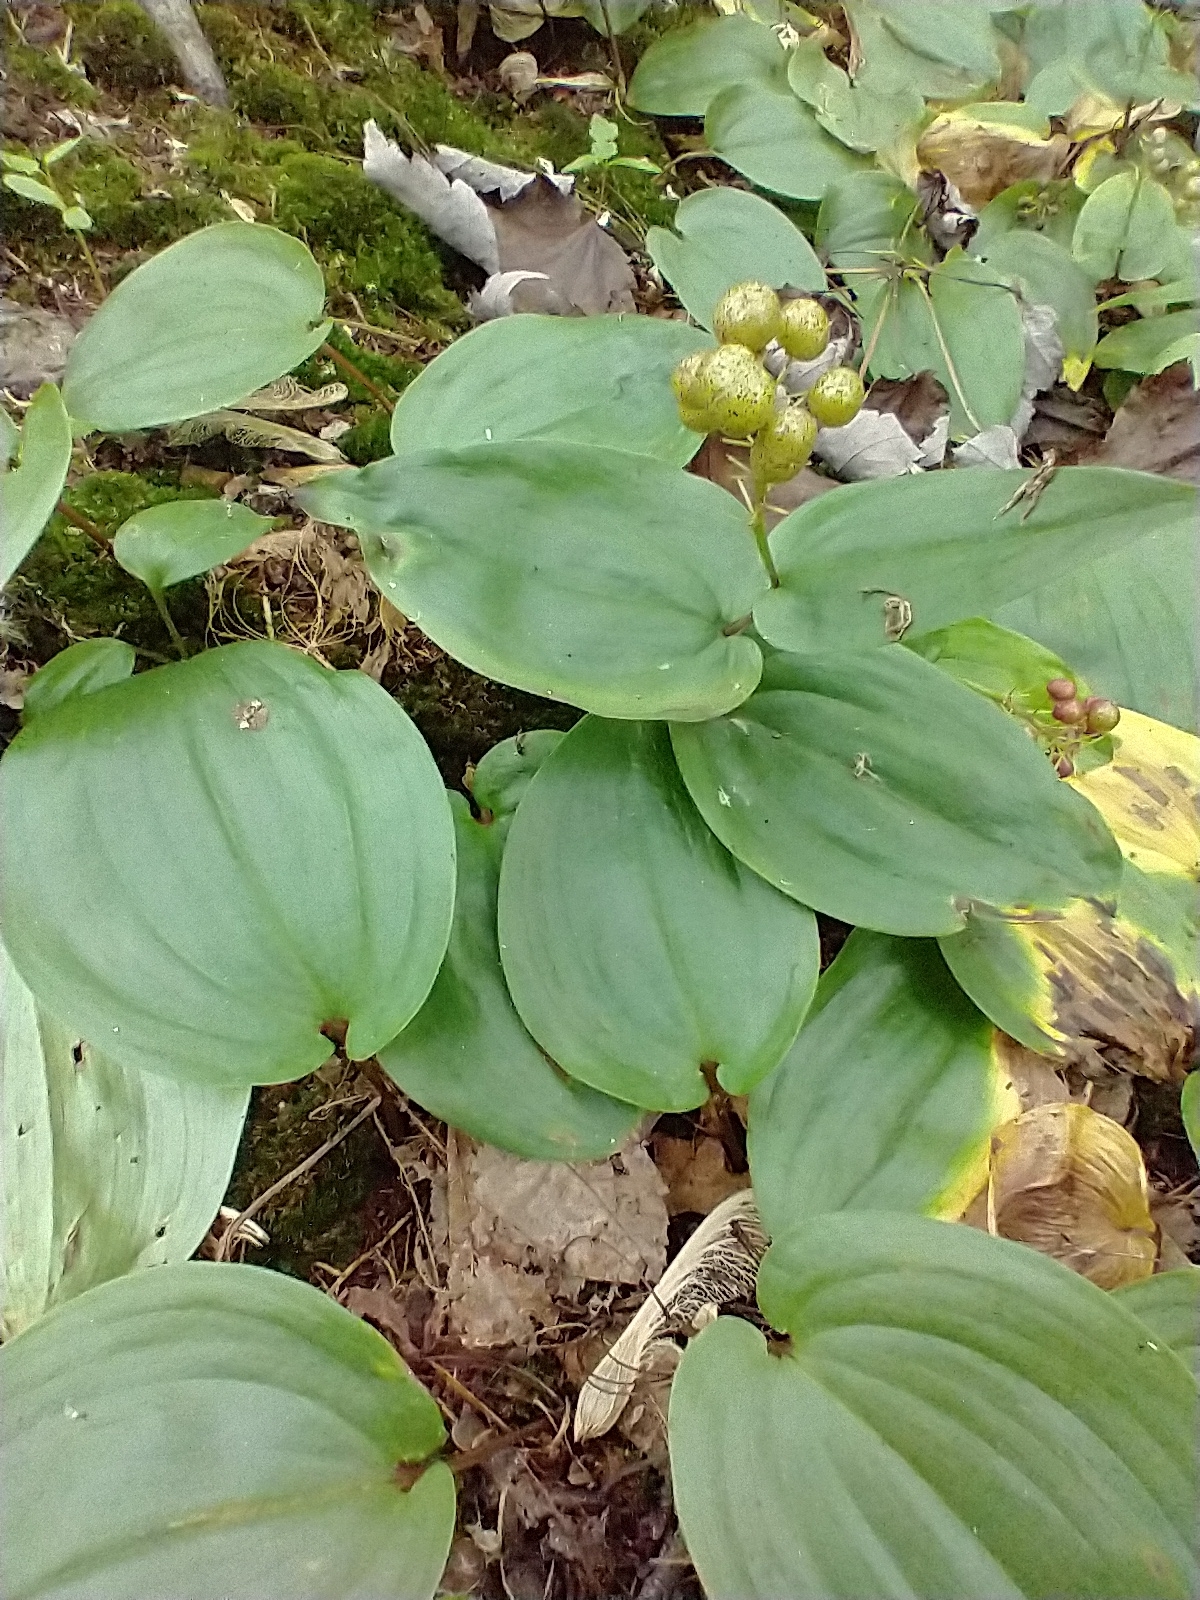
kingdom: Plantae
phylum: Tracheophyta
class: Liliopsida
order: Asparagales
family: Asparagaceae
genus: Maianthemum
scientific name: Maianthemum canadense
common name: False lily-of-the-valley
